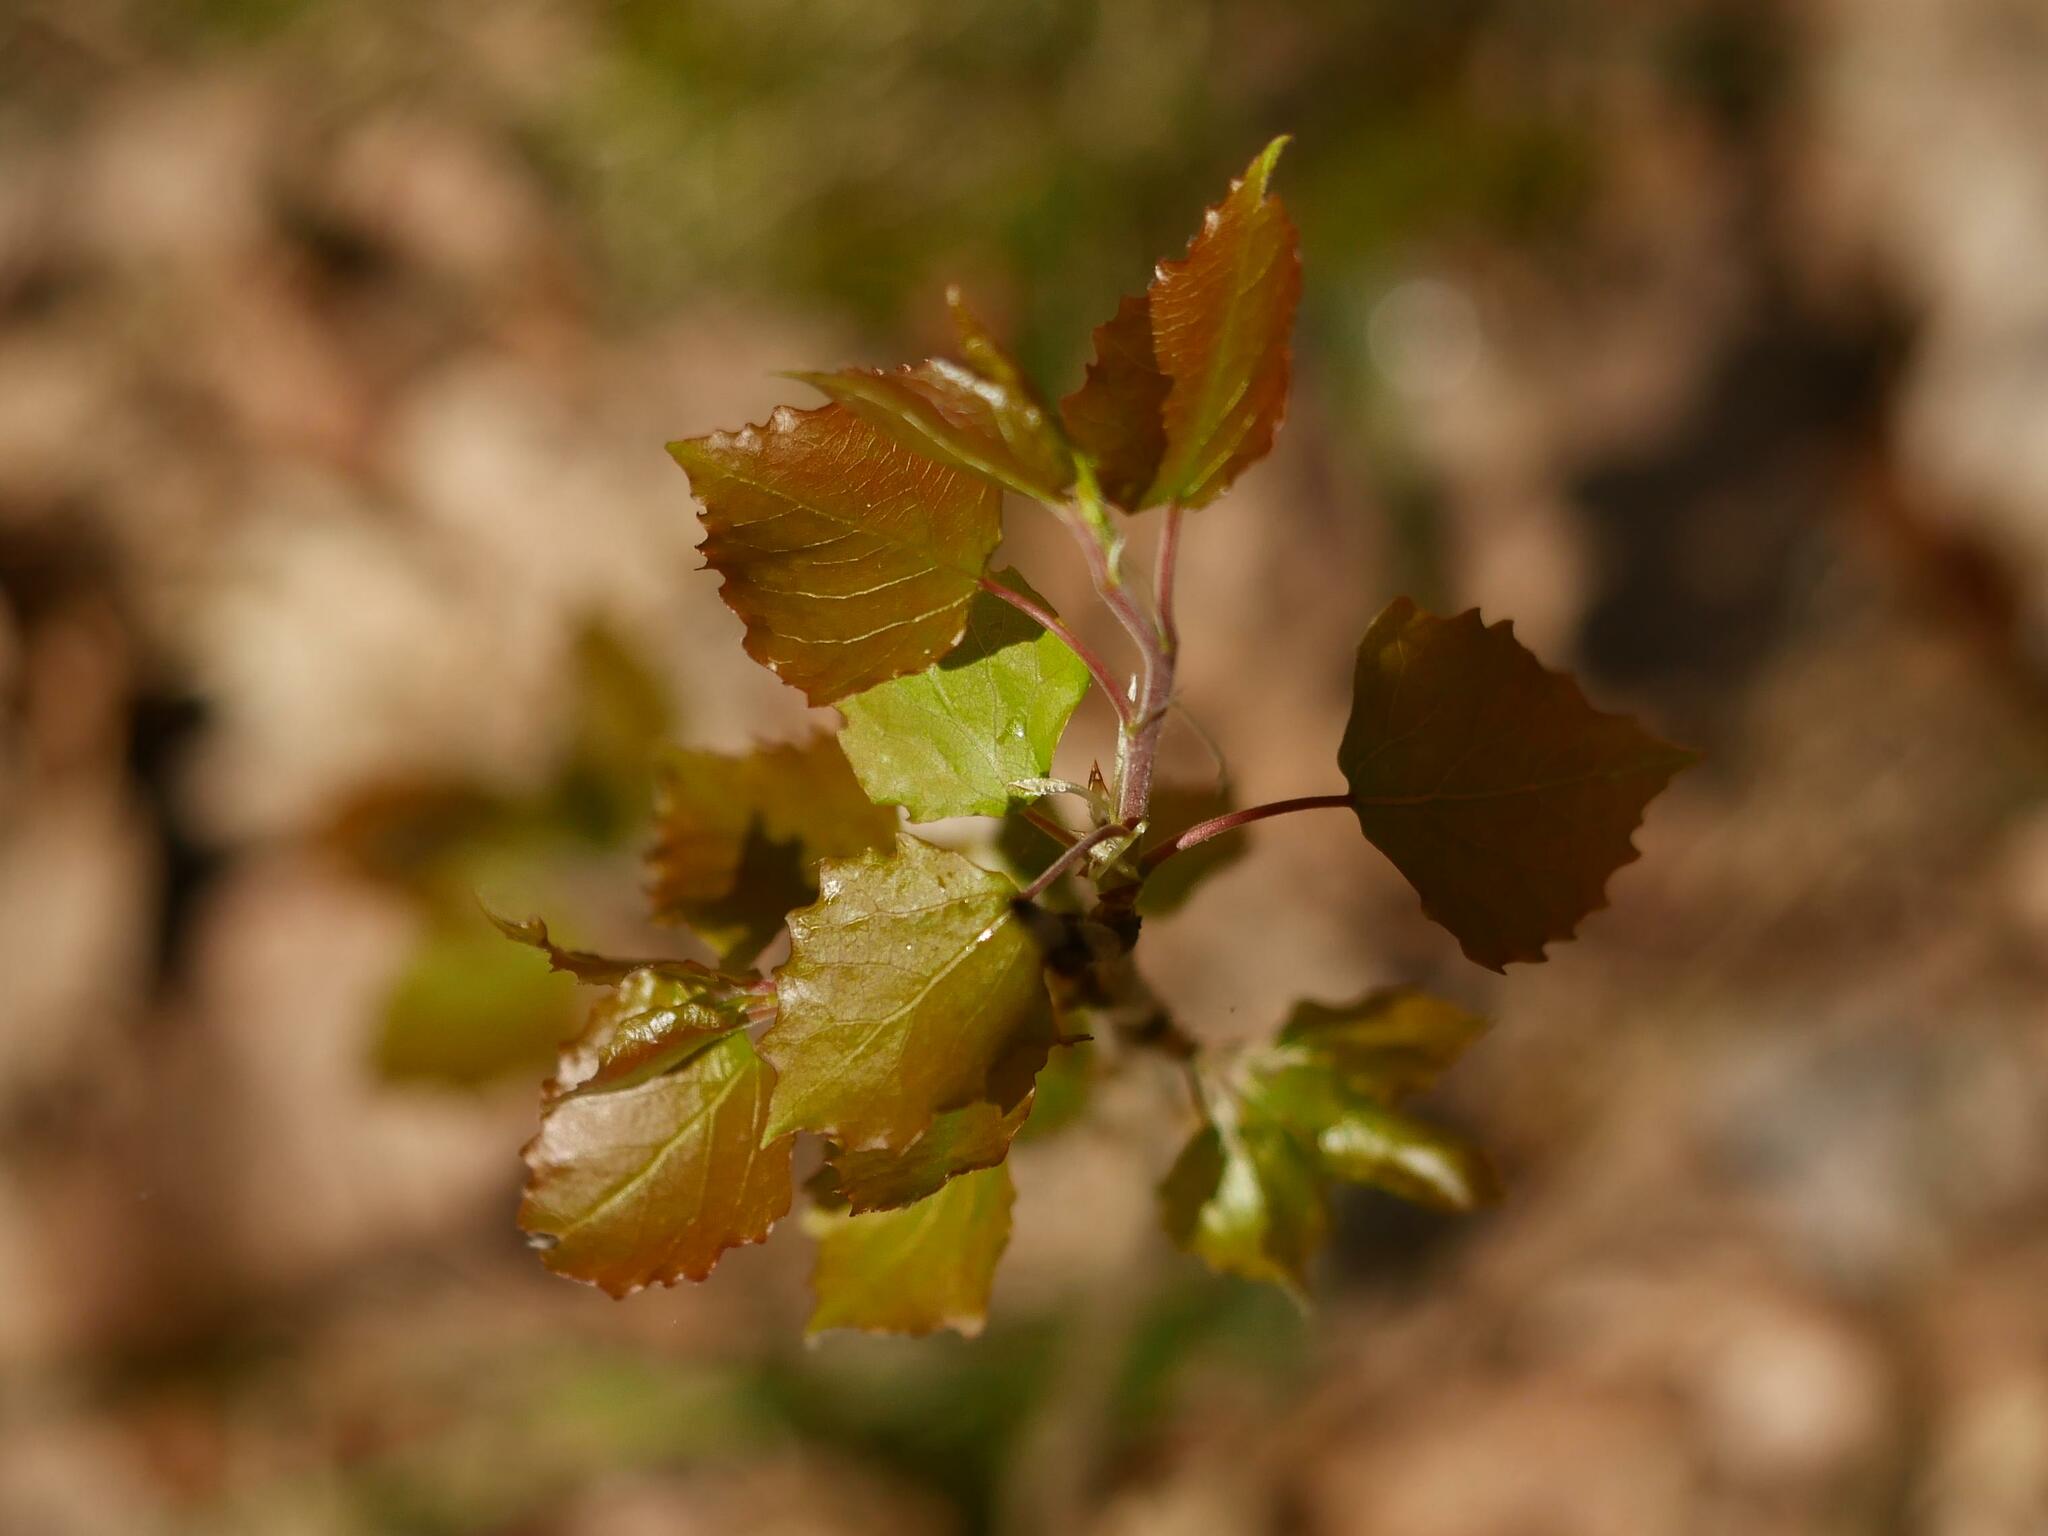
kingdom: Plantae
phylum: Tracheophyta
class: Magnoliopsida
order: Malpighiales
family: Salicaceae
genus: Populus
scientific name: Populus tremula
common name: European aspen
